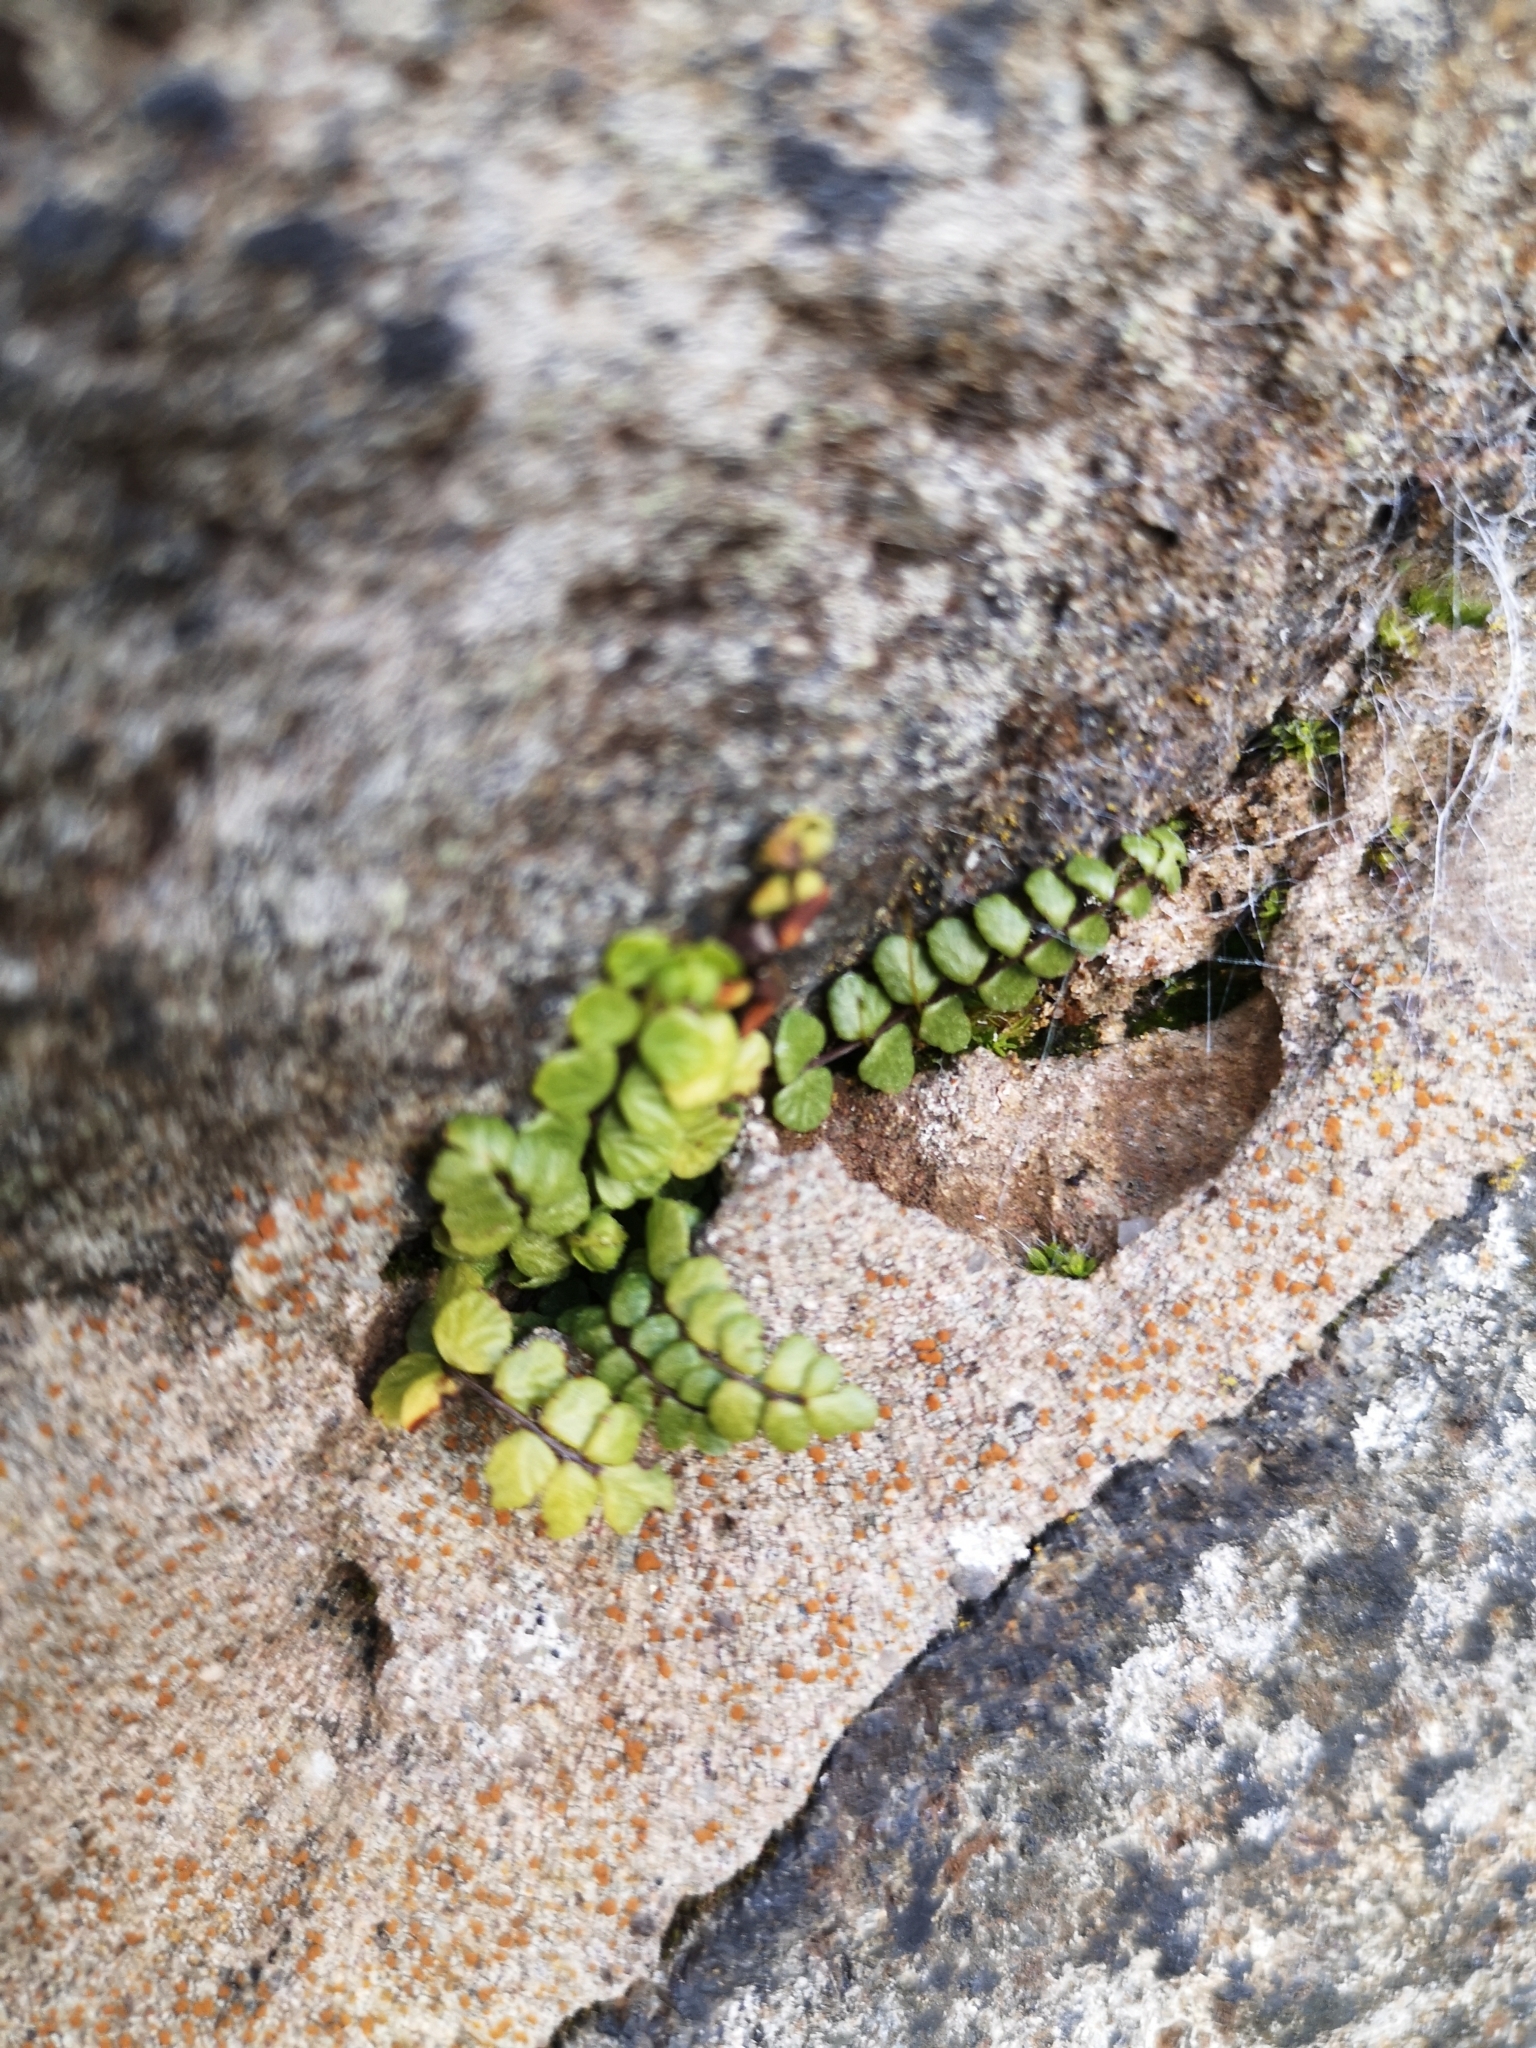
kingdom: Plantae
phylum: Tracheophyta
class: Polypodiopsida
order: Polypodiales
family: Aspleniaceae
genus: Asplenium
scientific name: Asplenium trichomanes
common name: Maidenhair spleenwort
